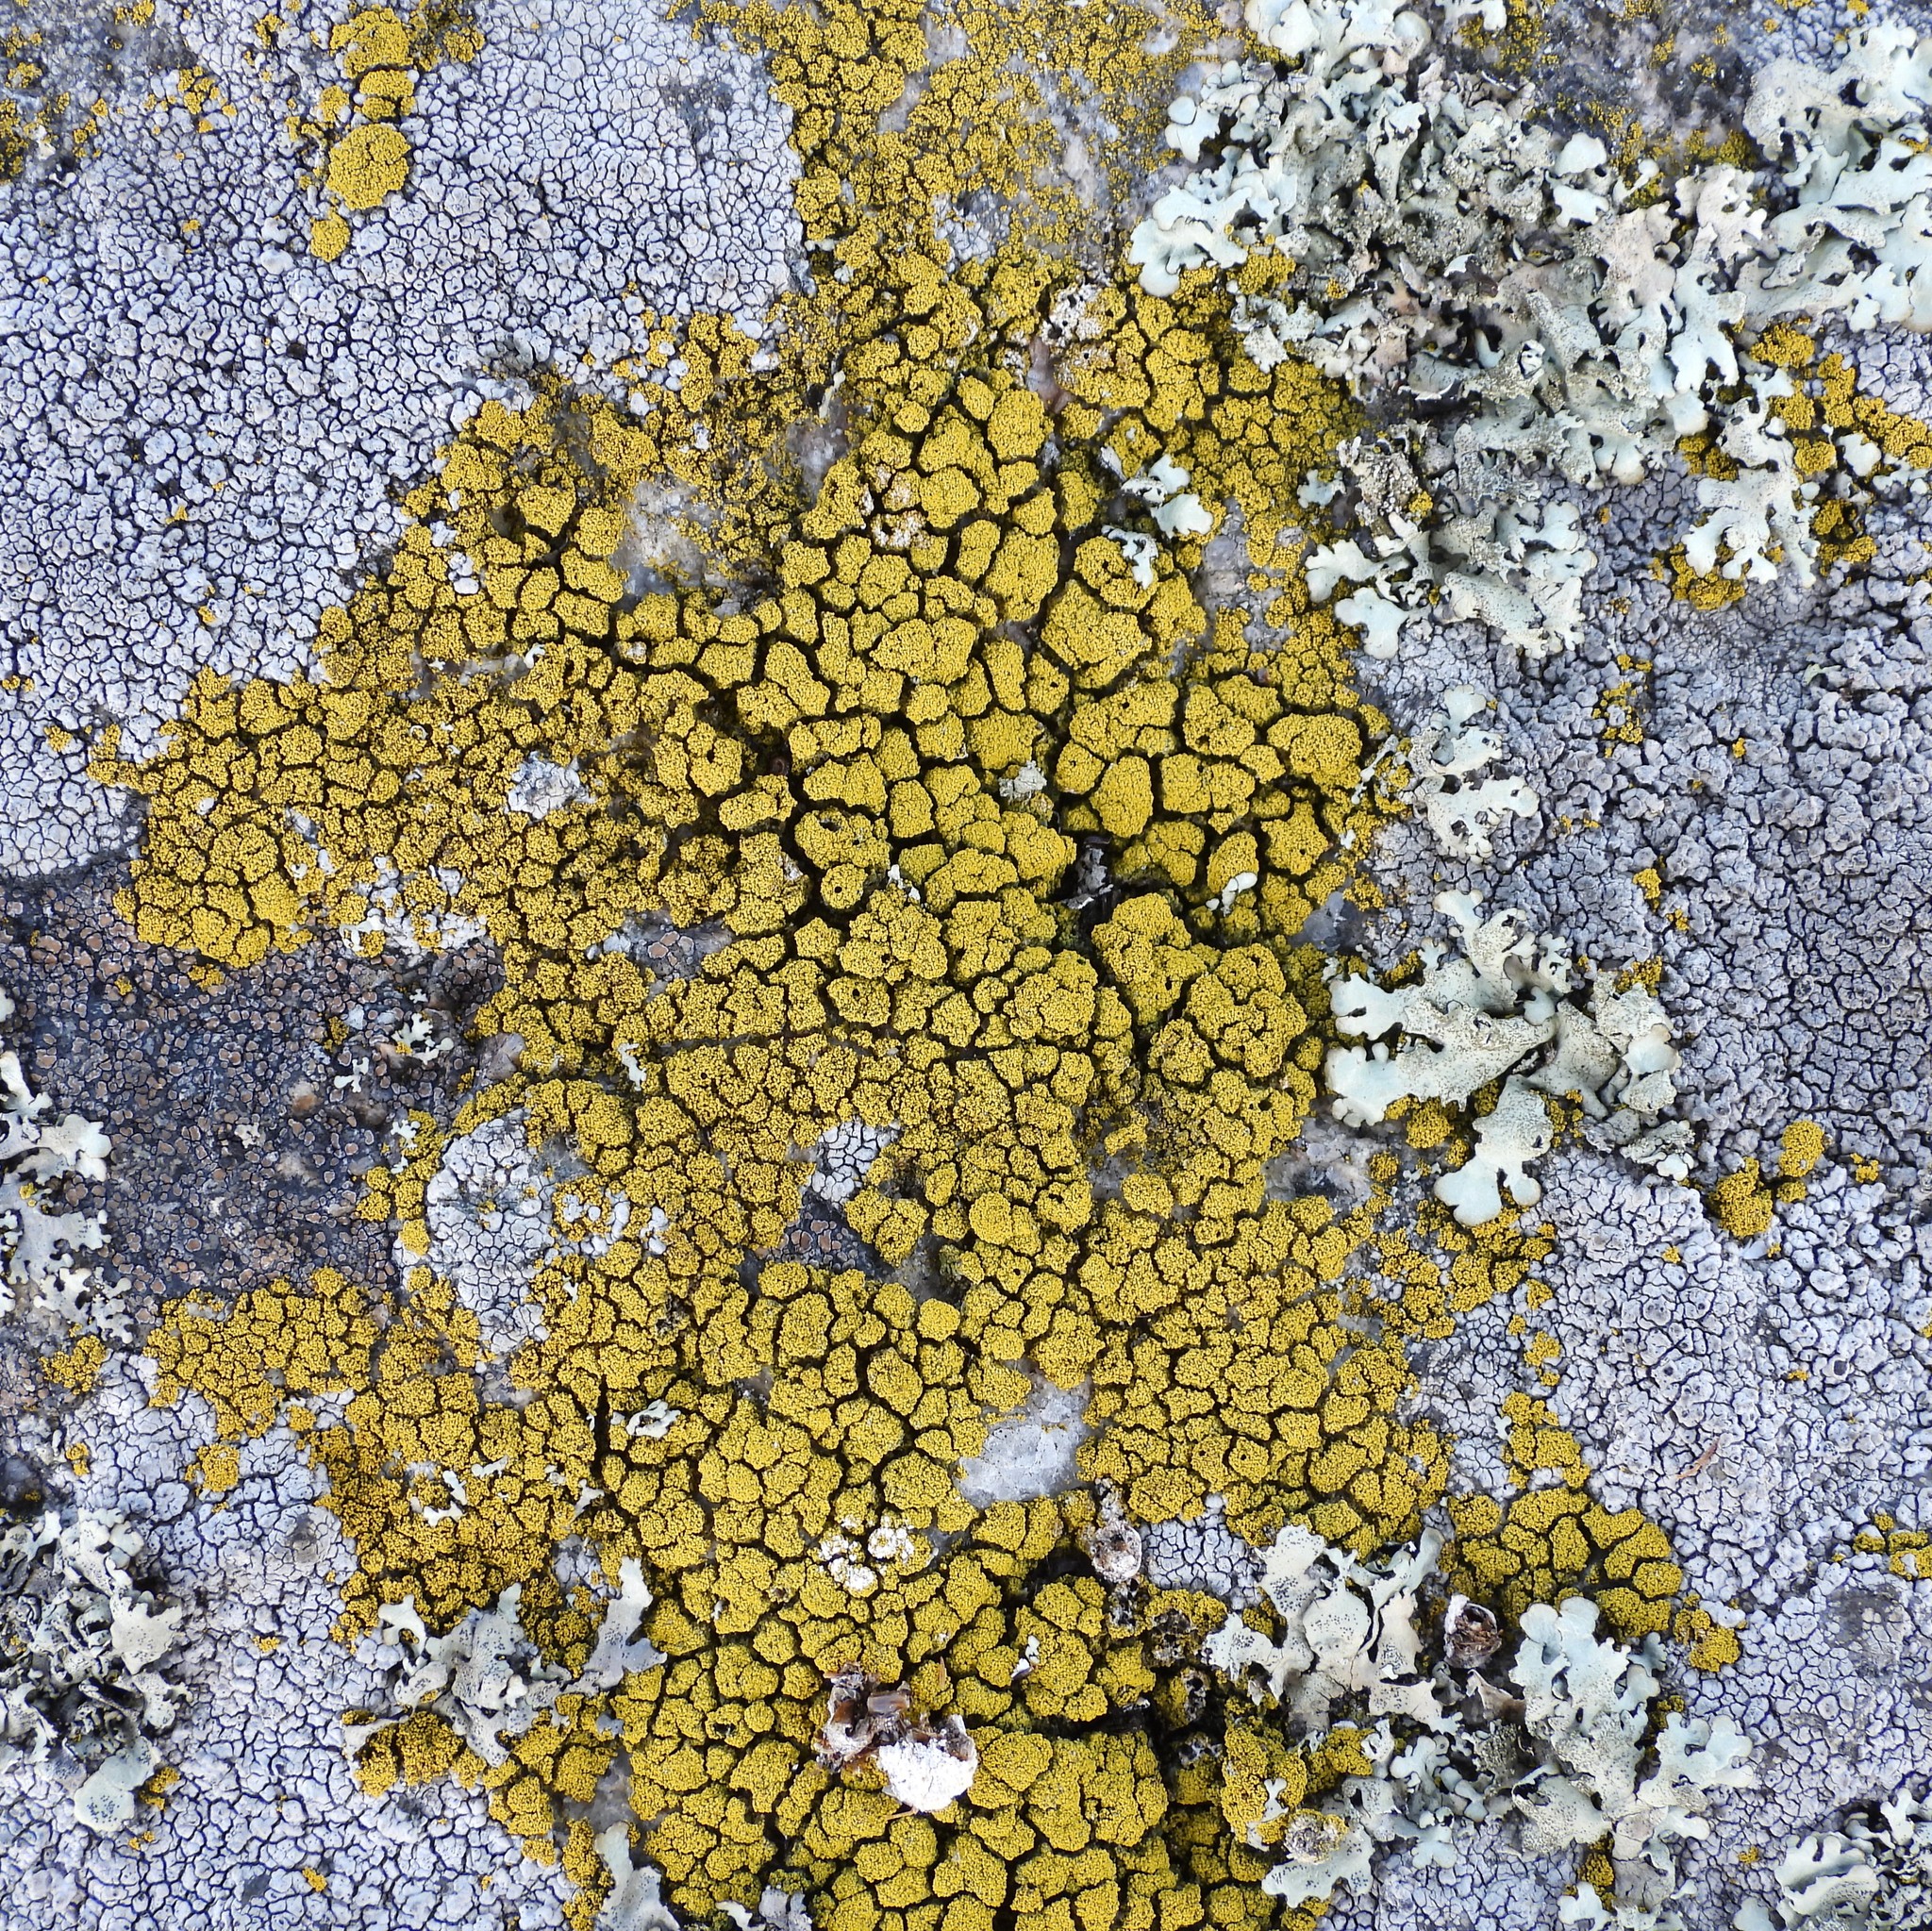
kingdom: Fungi
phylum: Ascomycota
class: Candelariomycetes
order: Candelariales
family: Candelariaceae
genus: Candelariella
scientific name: Candelariella coralliza
